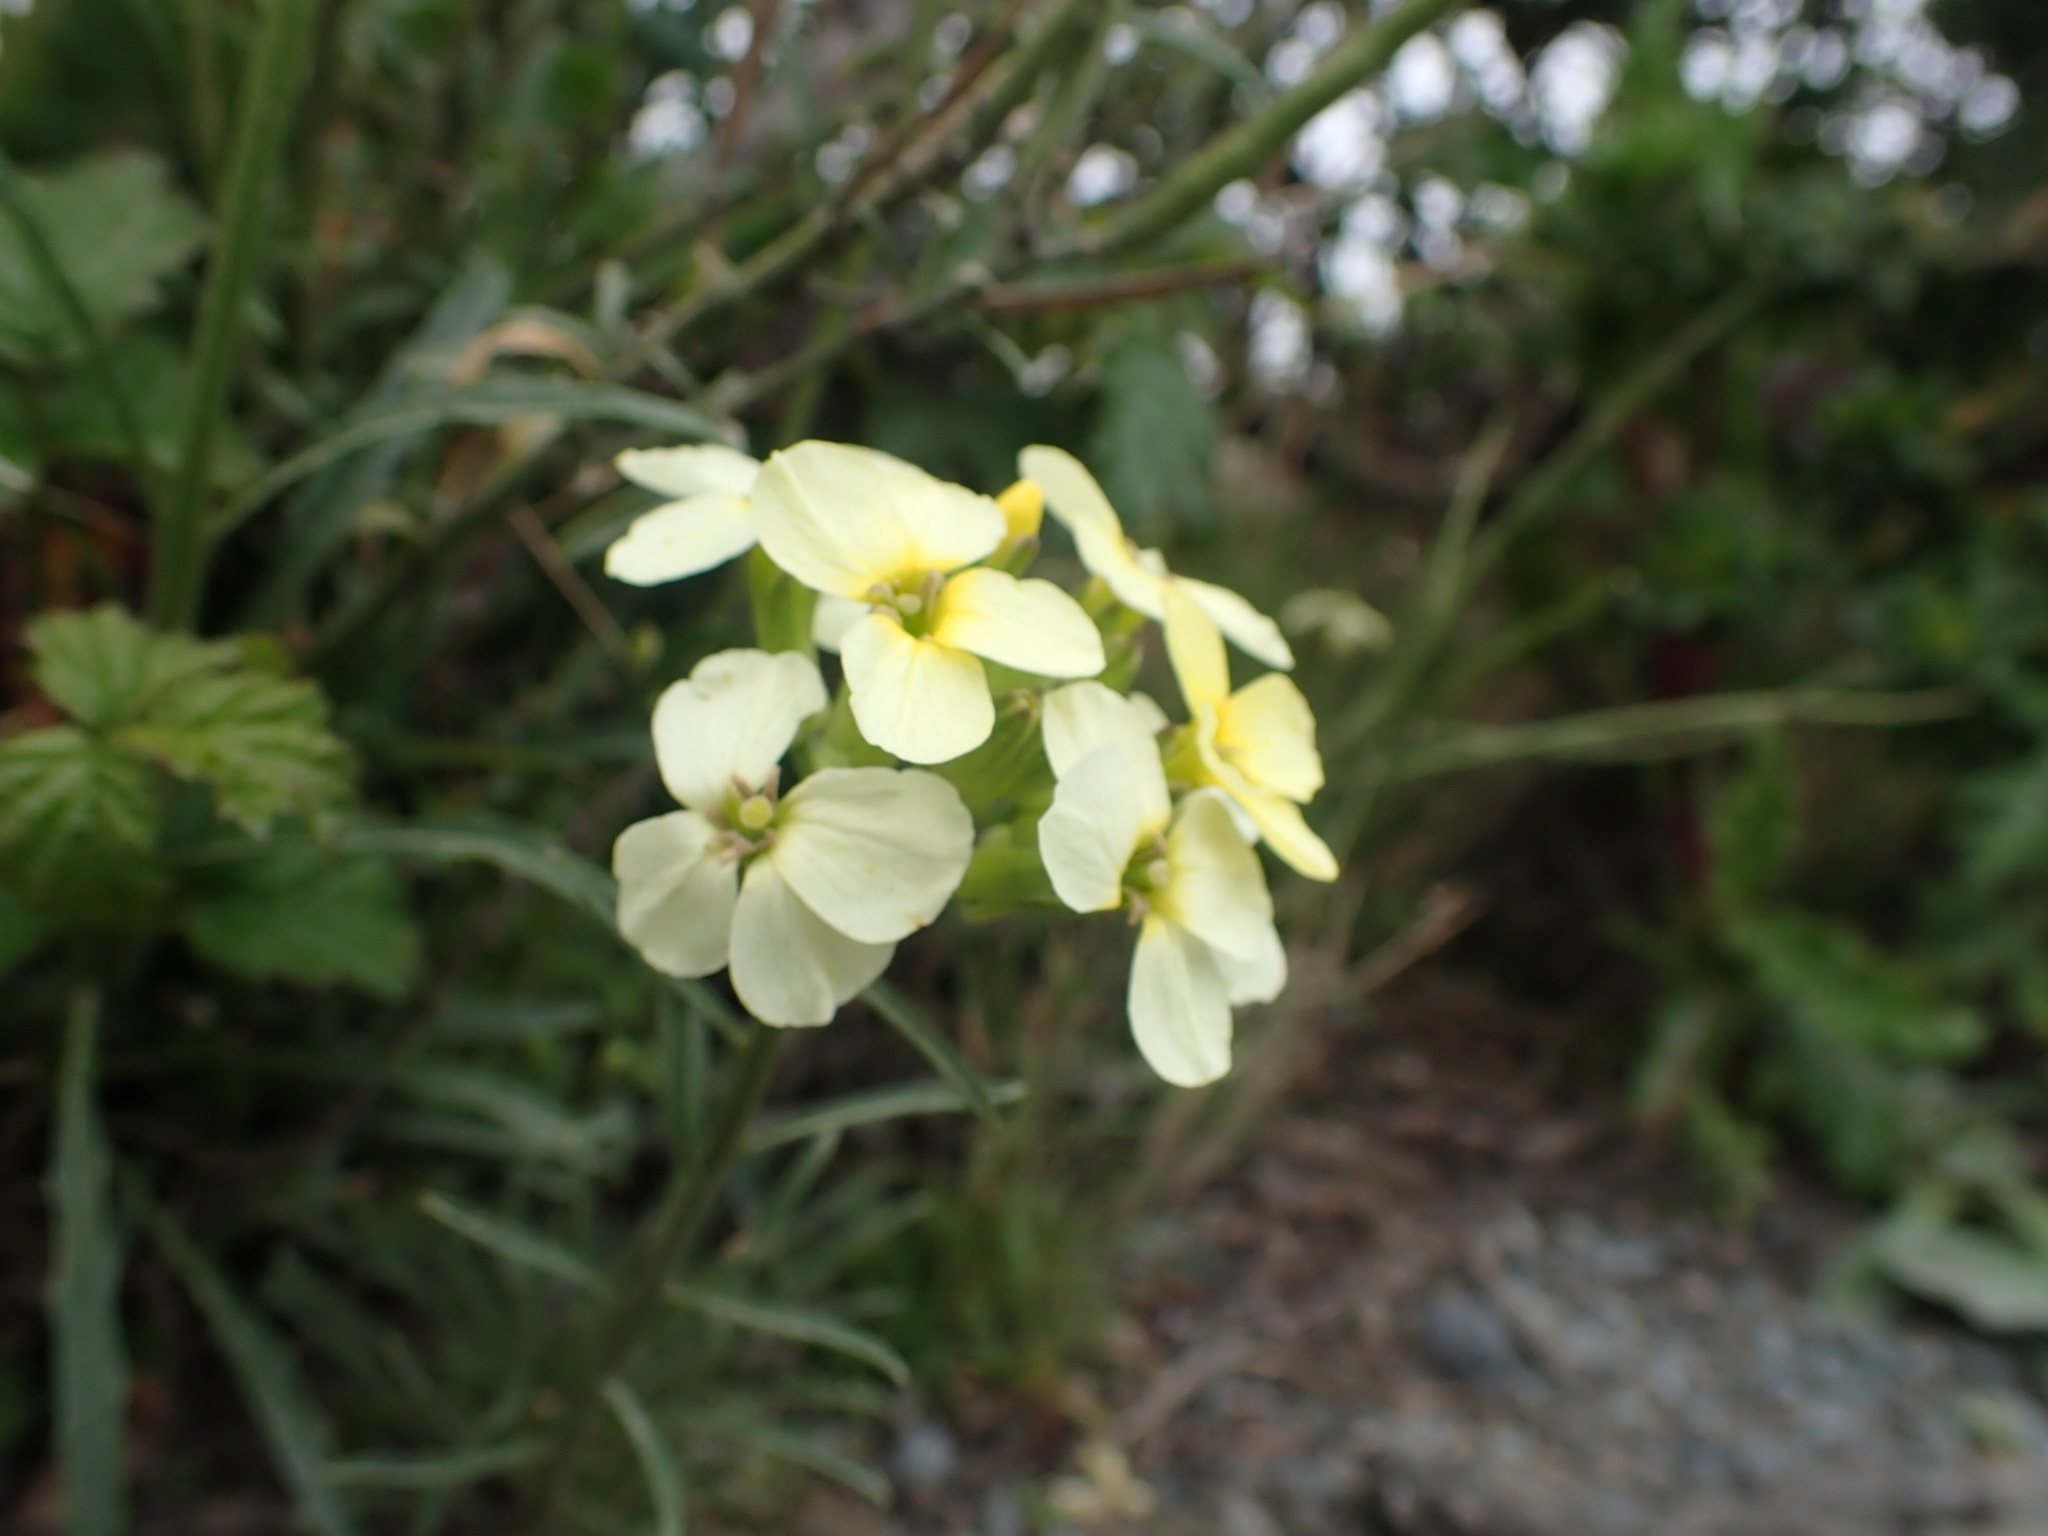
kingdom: Plantae
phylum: Tracheophyta
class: Magnoliopsida
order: Brassicales
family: Brassicaceae
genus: Erysimum
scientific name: Erysimum franciscanum
